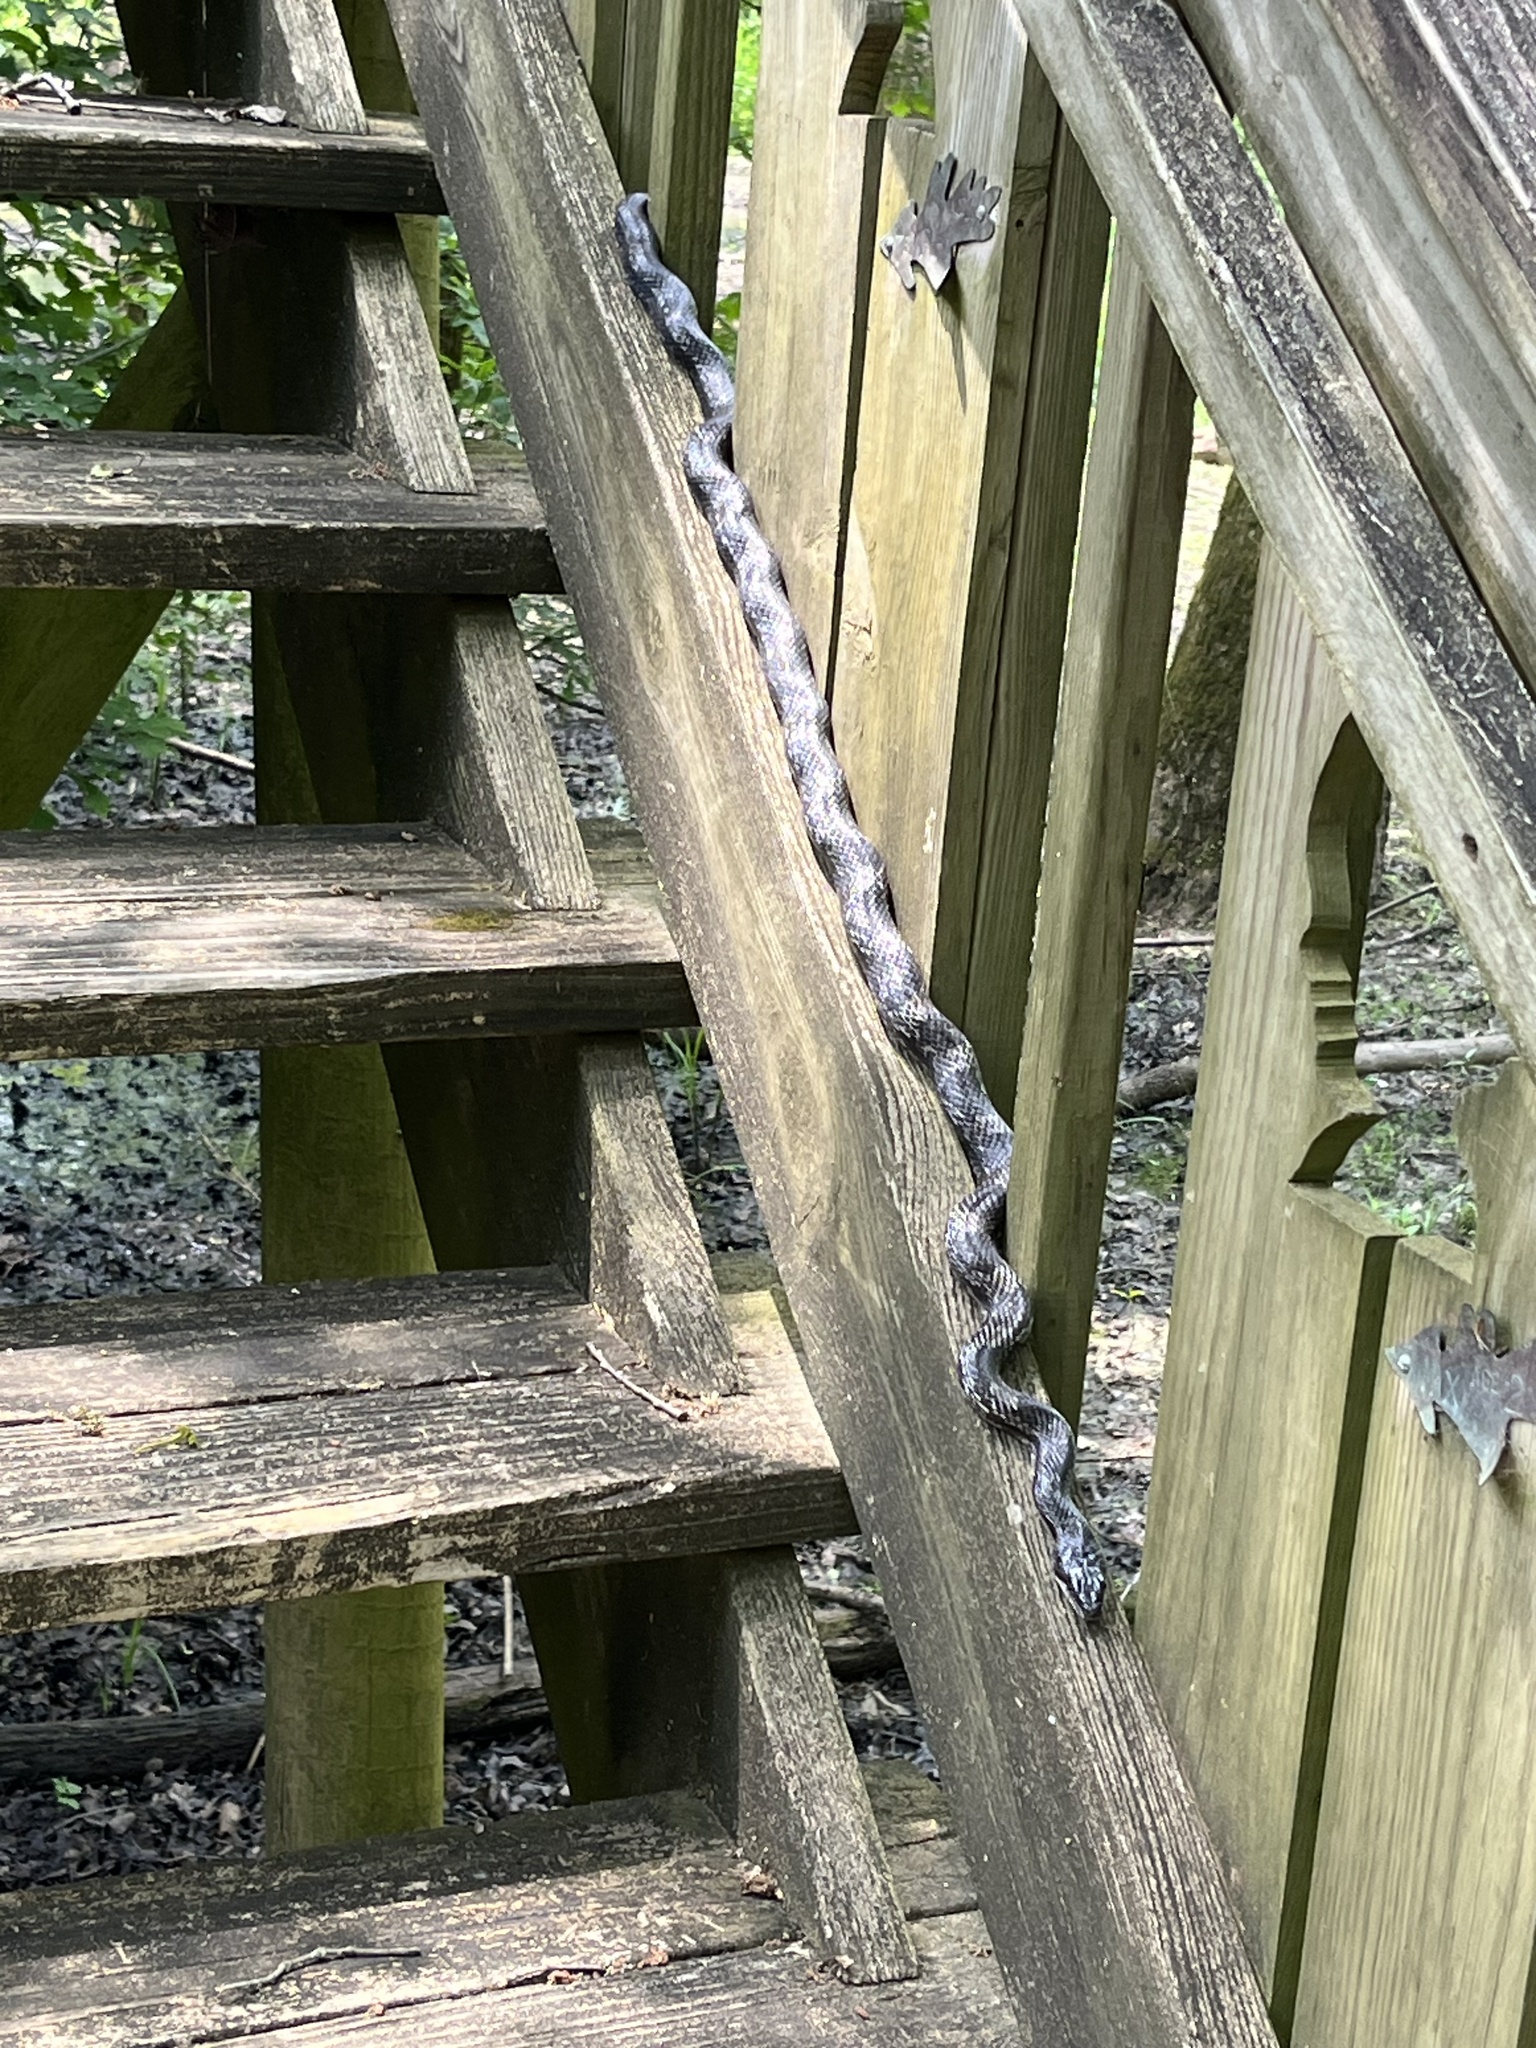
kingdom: Animalia
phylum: Chordata
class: Squamata
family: Colubridae
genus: Pantherophis
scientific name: Pantherophis spiloides
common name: Gray rat snake
